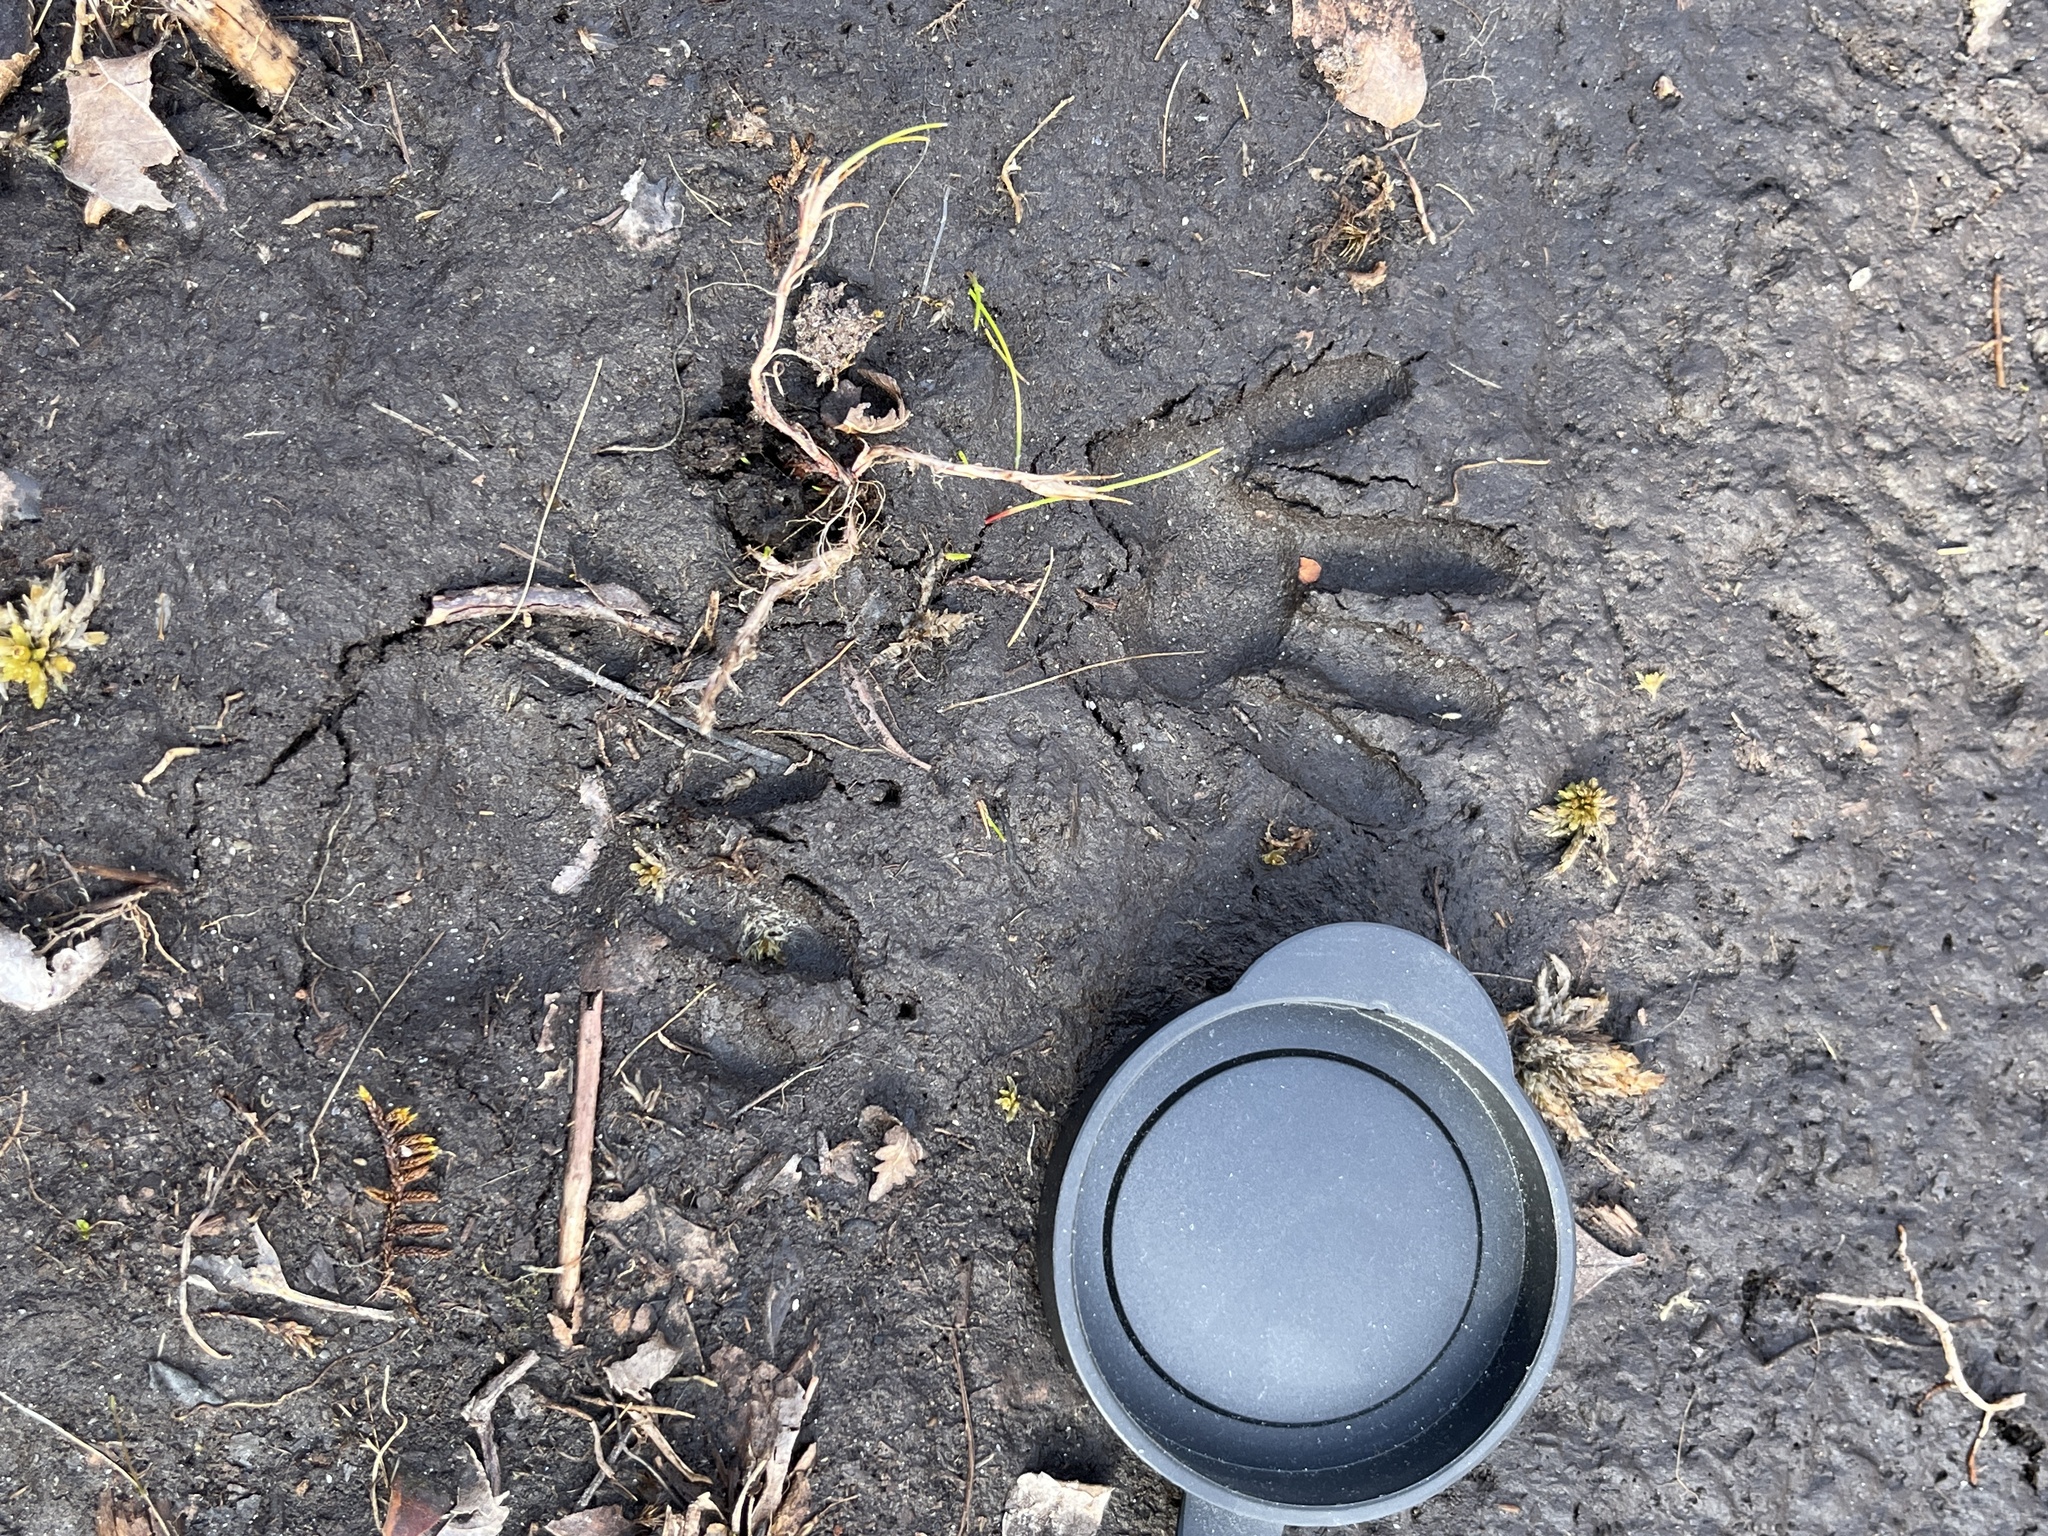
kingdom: Animalia
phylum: Chordata
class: Mammalia
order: Carnivora
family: Procyonidae
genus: Procyon
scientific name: Procyon lotor
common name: Raccoon
